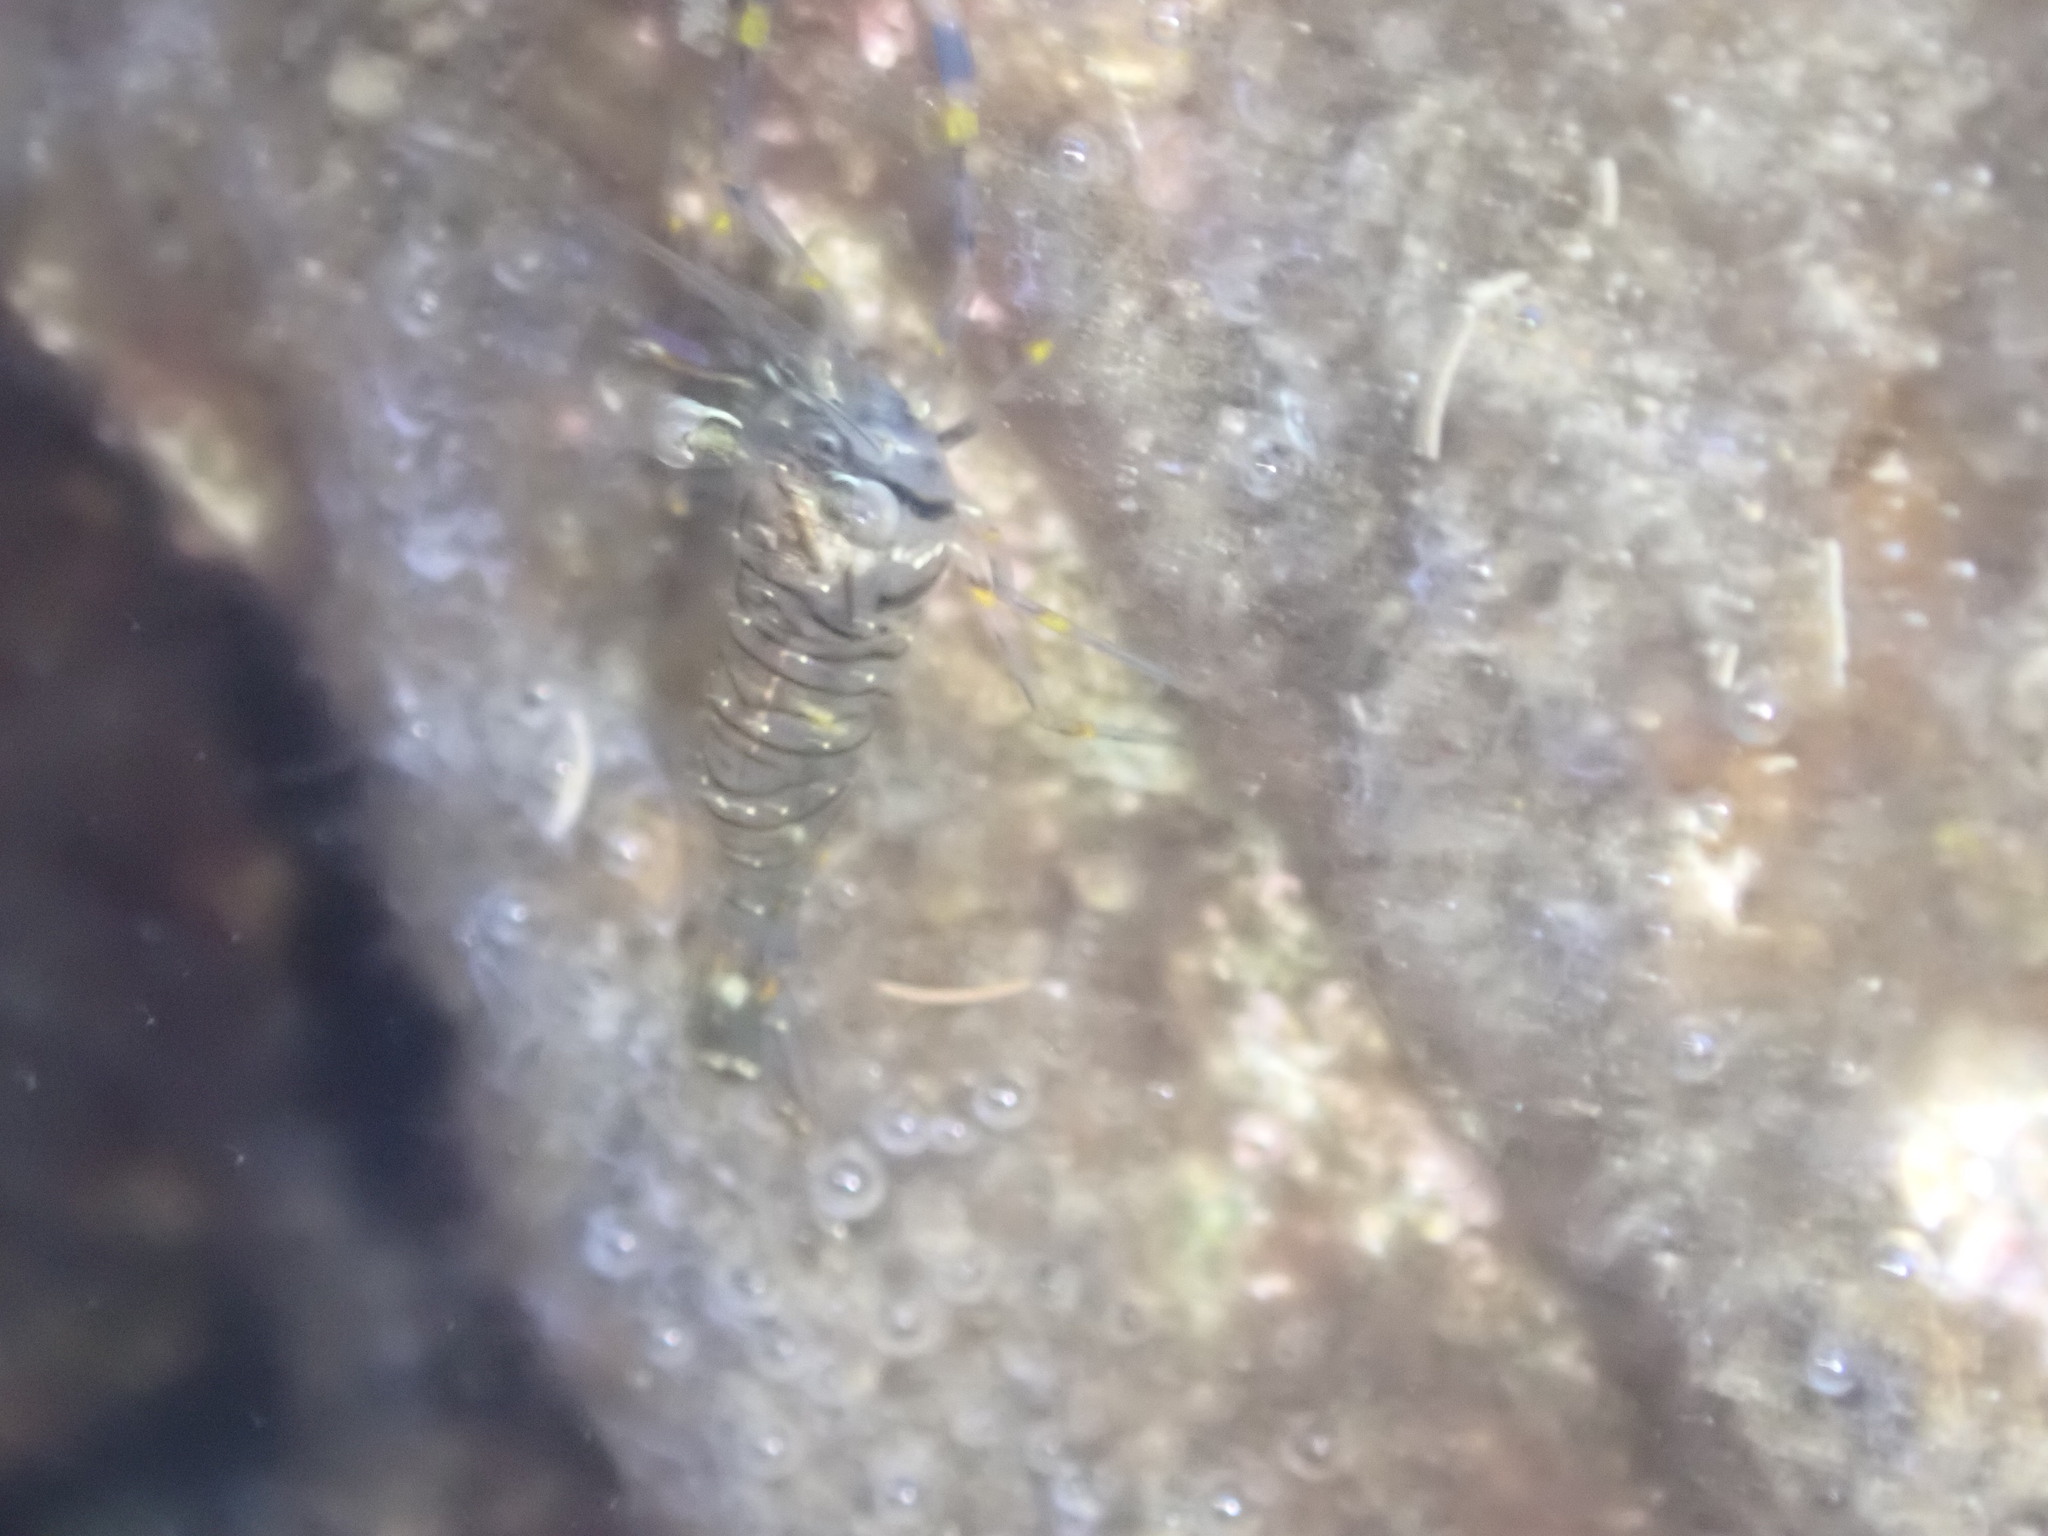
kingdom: Animalia
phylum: Arthropoda
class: Malacostraca
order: Decapoda
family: Palaemonidae
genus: Palaemon
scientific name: Palaemon elegans
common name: Grass prawm
